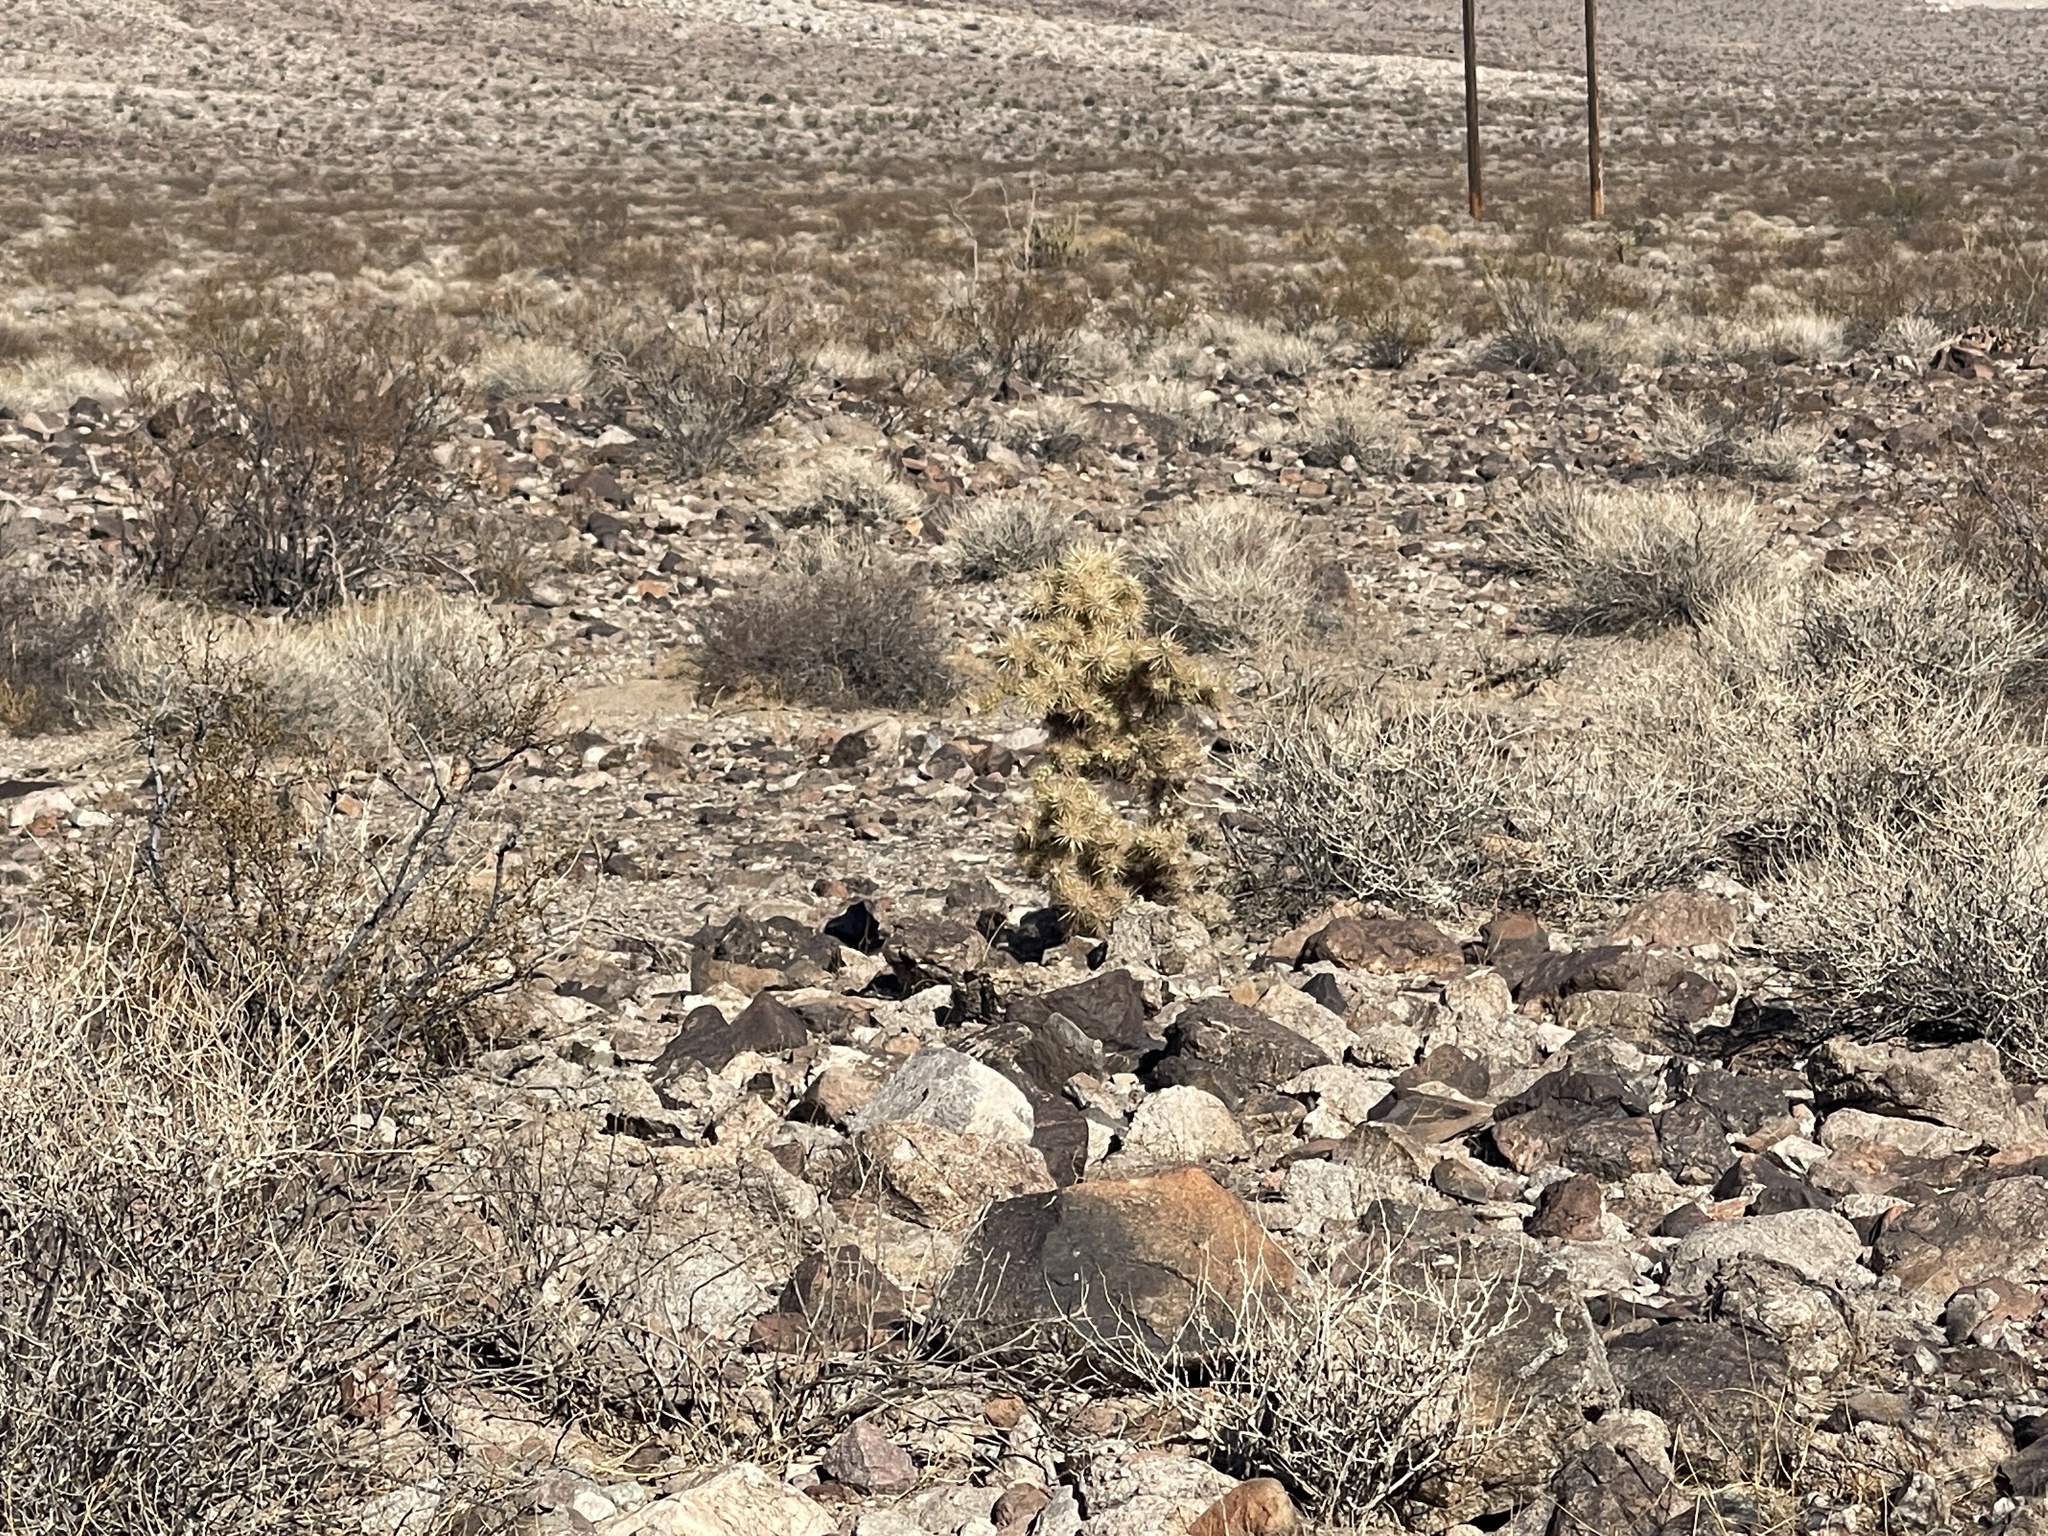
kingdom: Plantae
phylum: Tracheophyta
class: Magnoliopsida
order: Caryophyllales
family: Cactaceae
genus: Cylindropuntia
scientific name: Cylindropuntia echinocarpa
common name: Ground cholla
